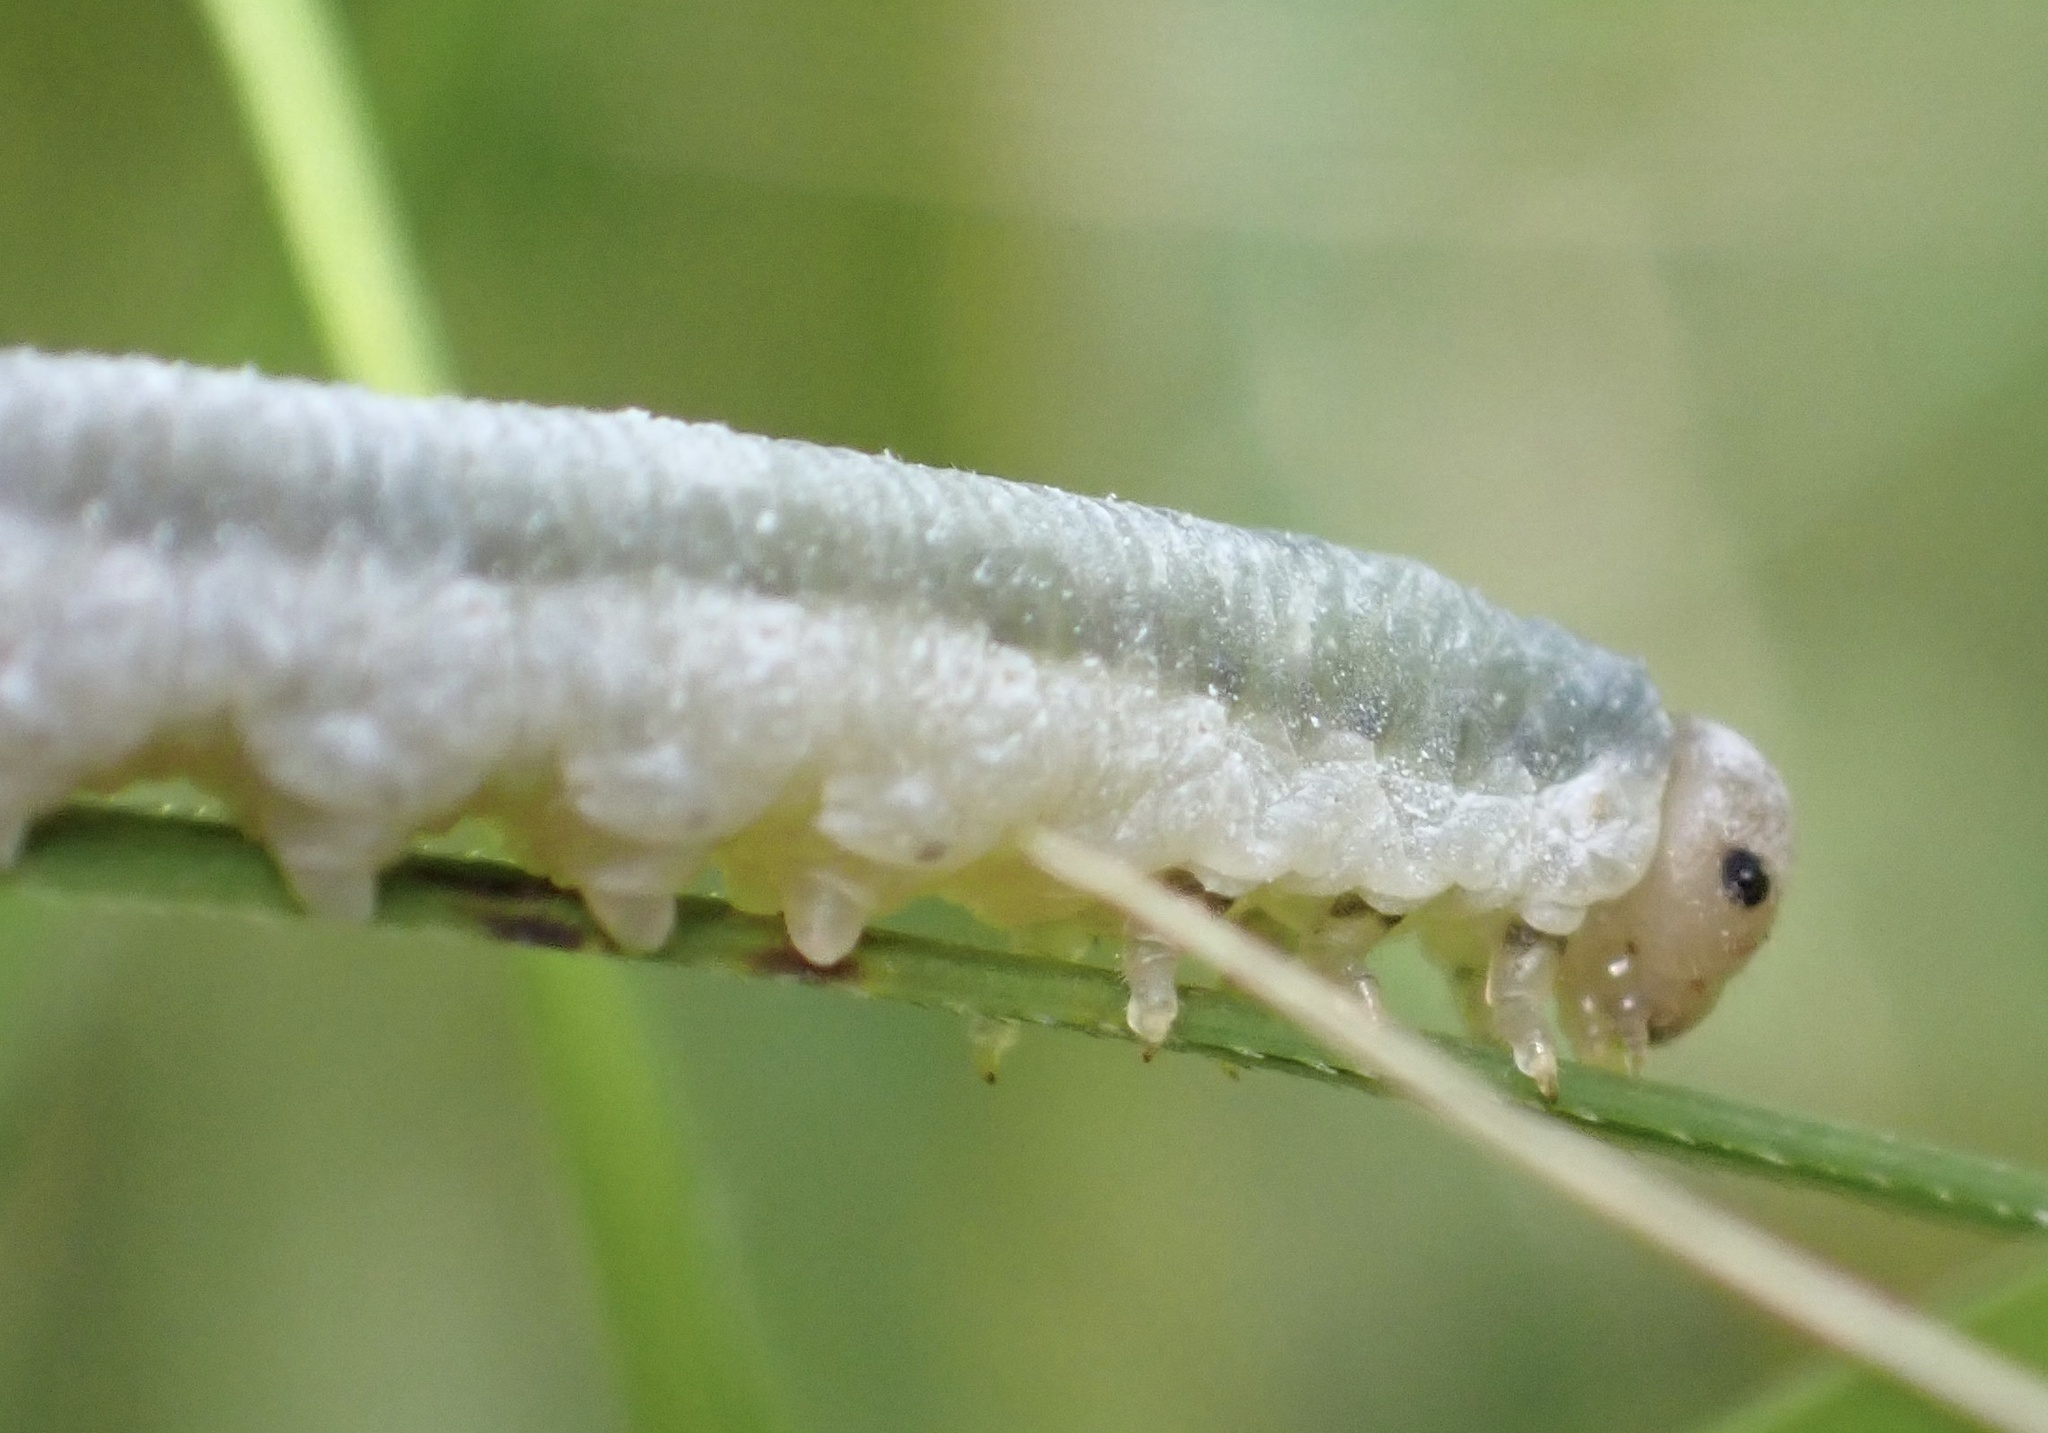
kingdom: Animalia
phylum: Arthropoda
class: Insecta
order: Hymenoptera
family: Tenthredinidae
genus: Monostegia
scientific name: Monostegia abdominalis
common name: Tenthredid wasp
